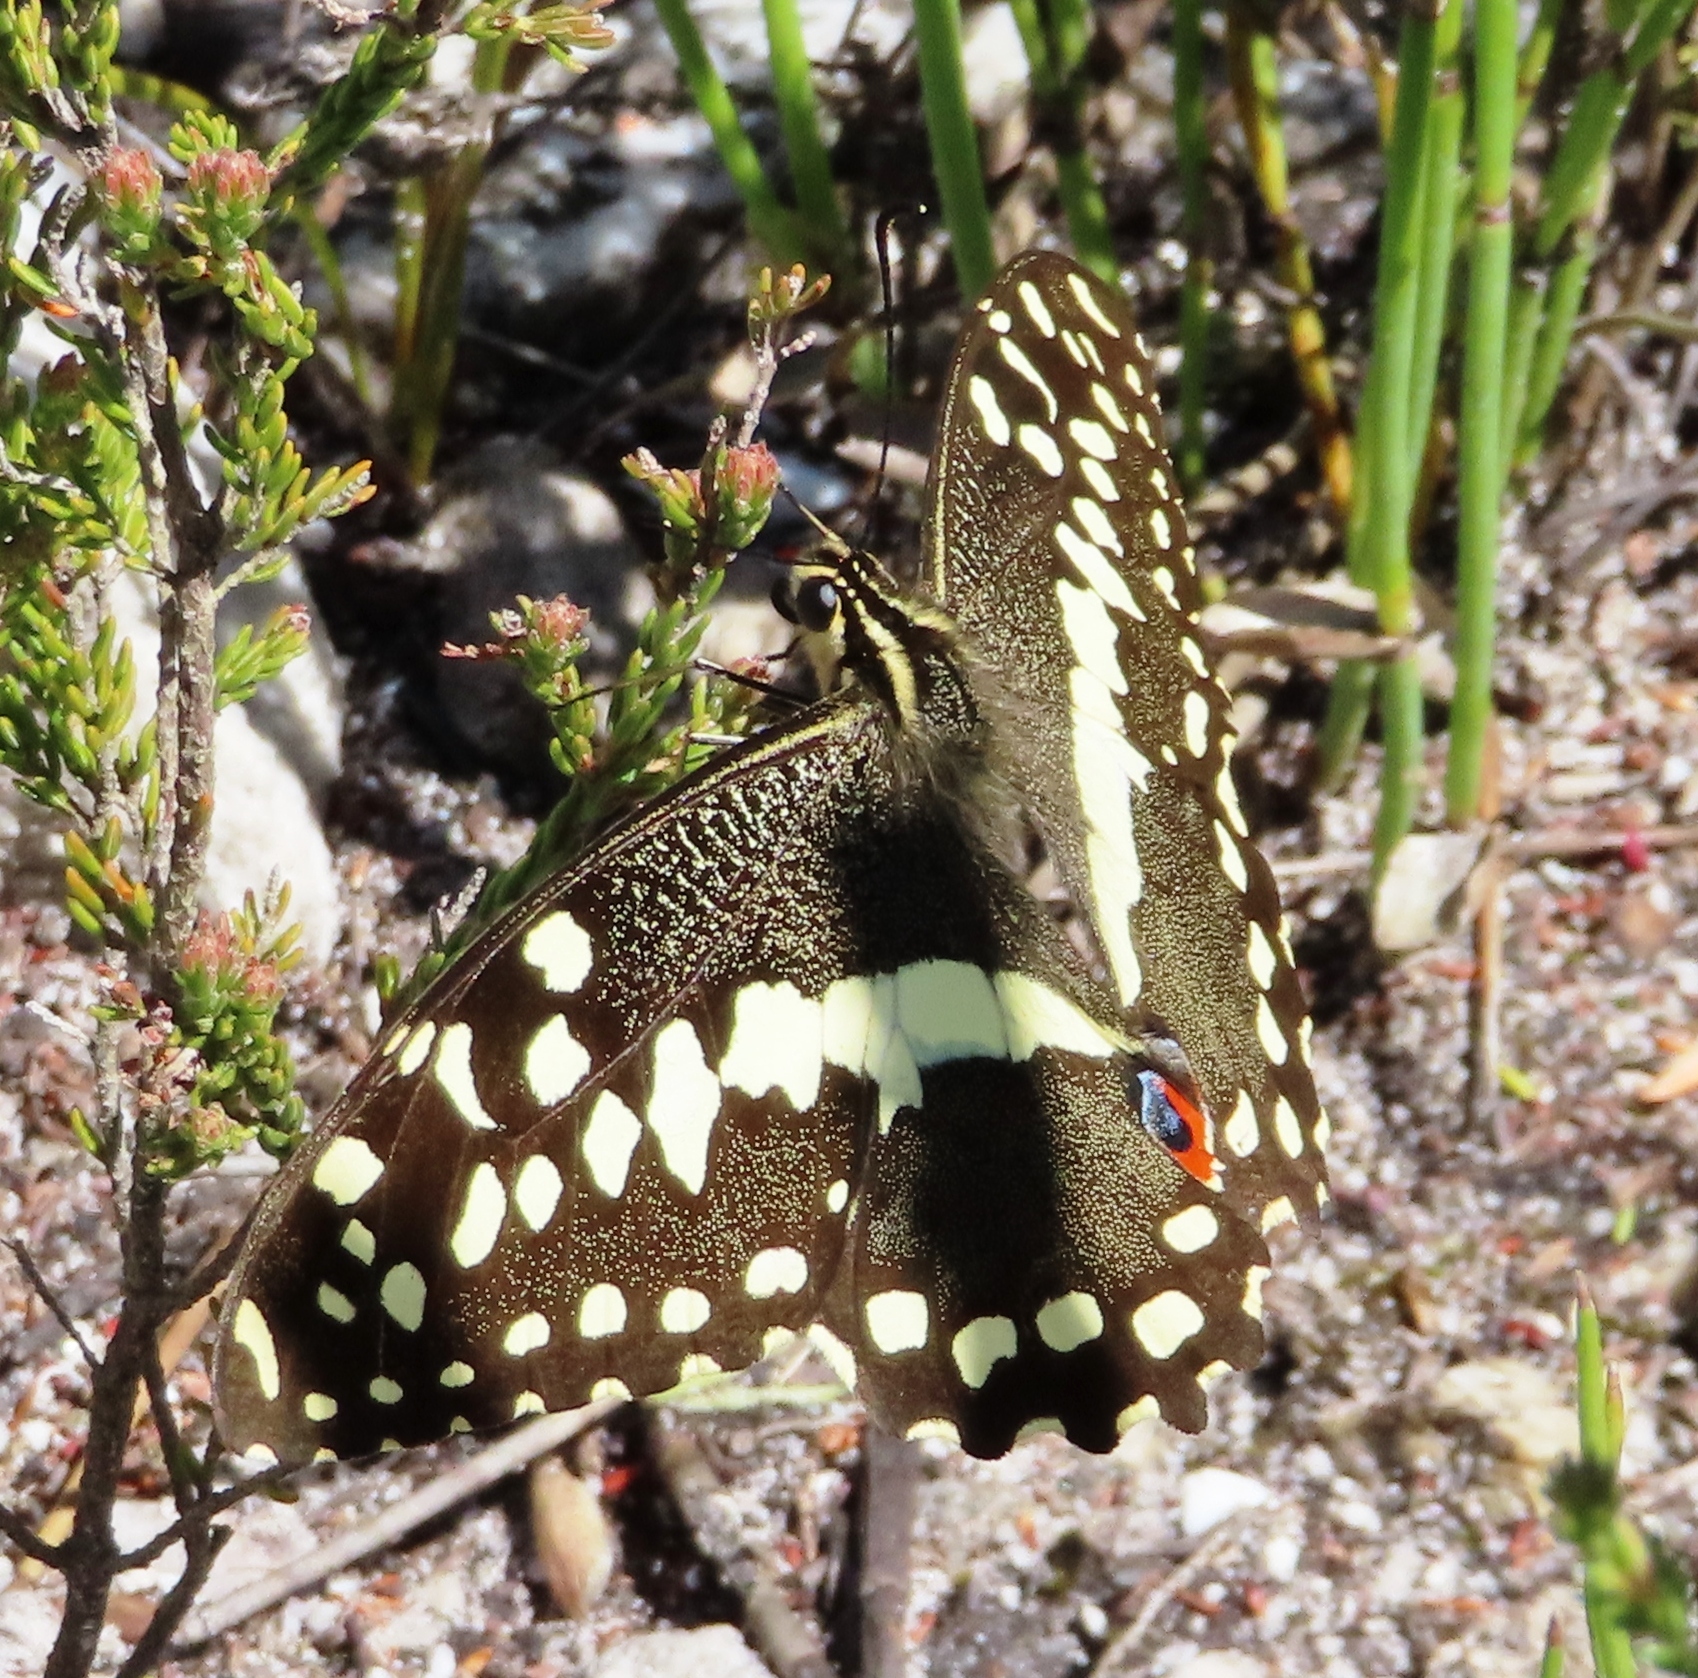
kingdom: Animalia
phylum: Arthropoda
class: Insecta
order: Lepidoptera
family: Papilionidae
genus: Papilio
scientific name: Papilio demodocus
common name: Christmas butterfly
